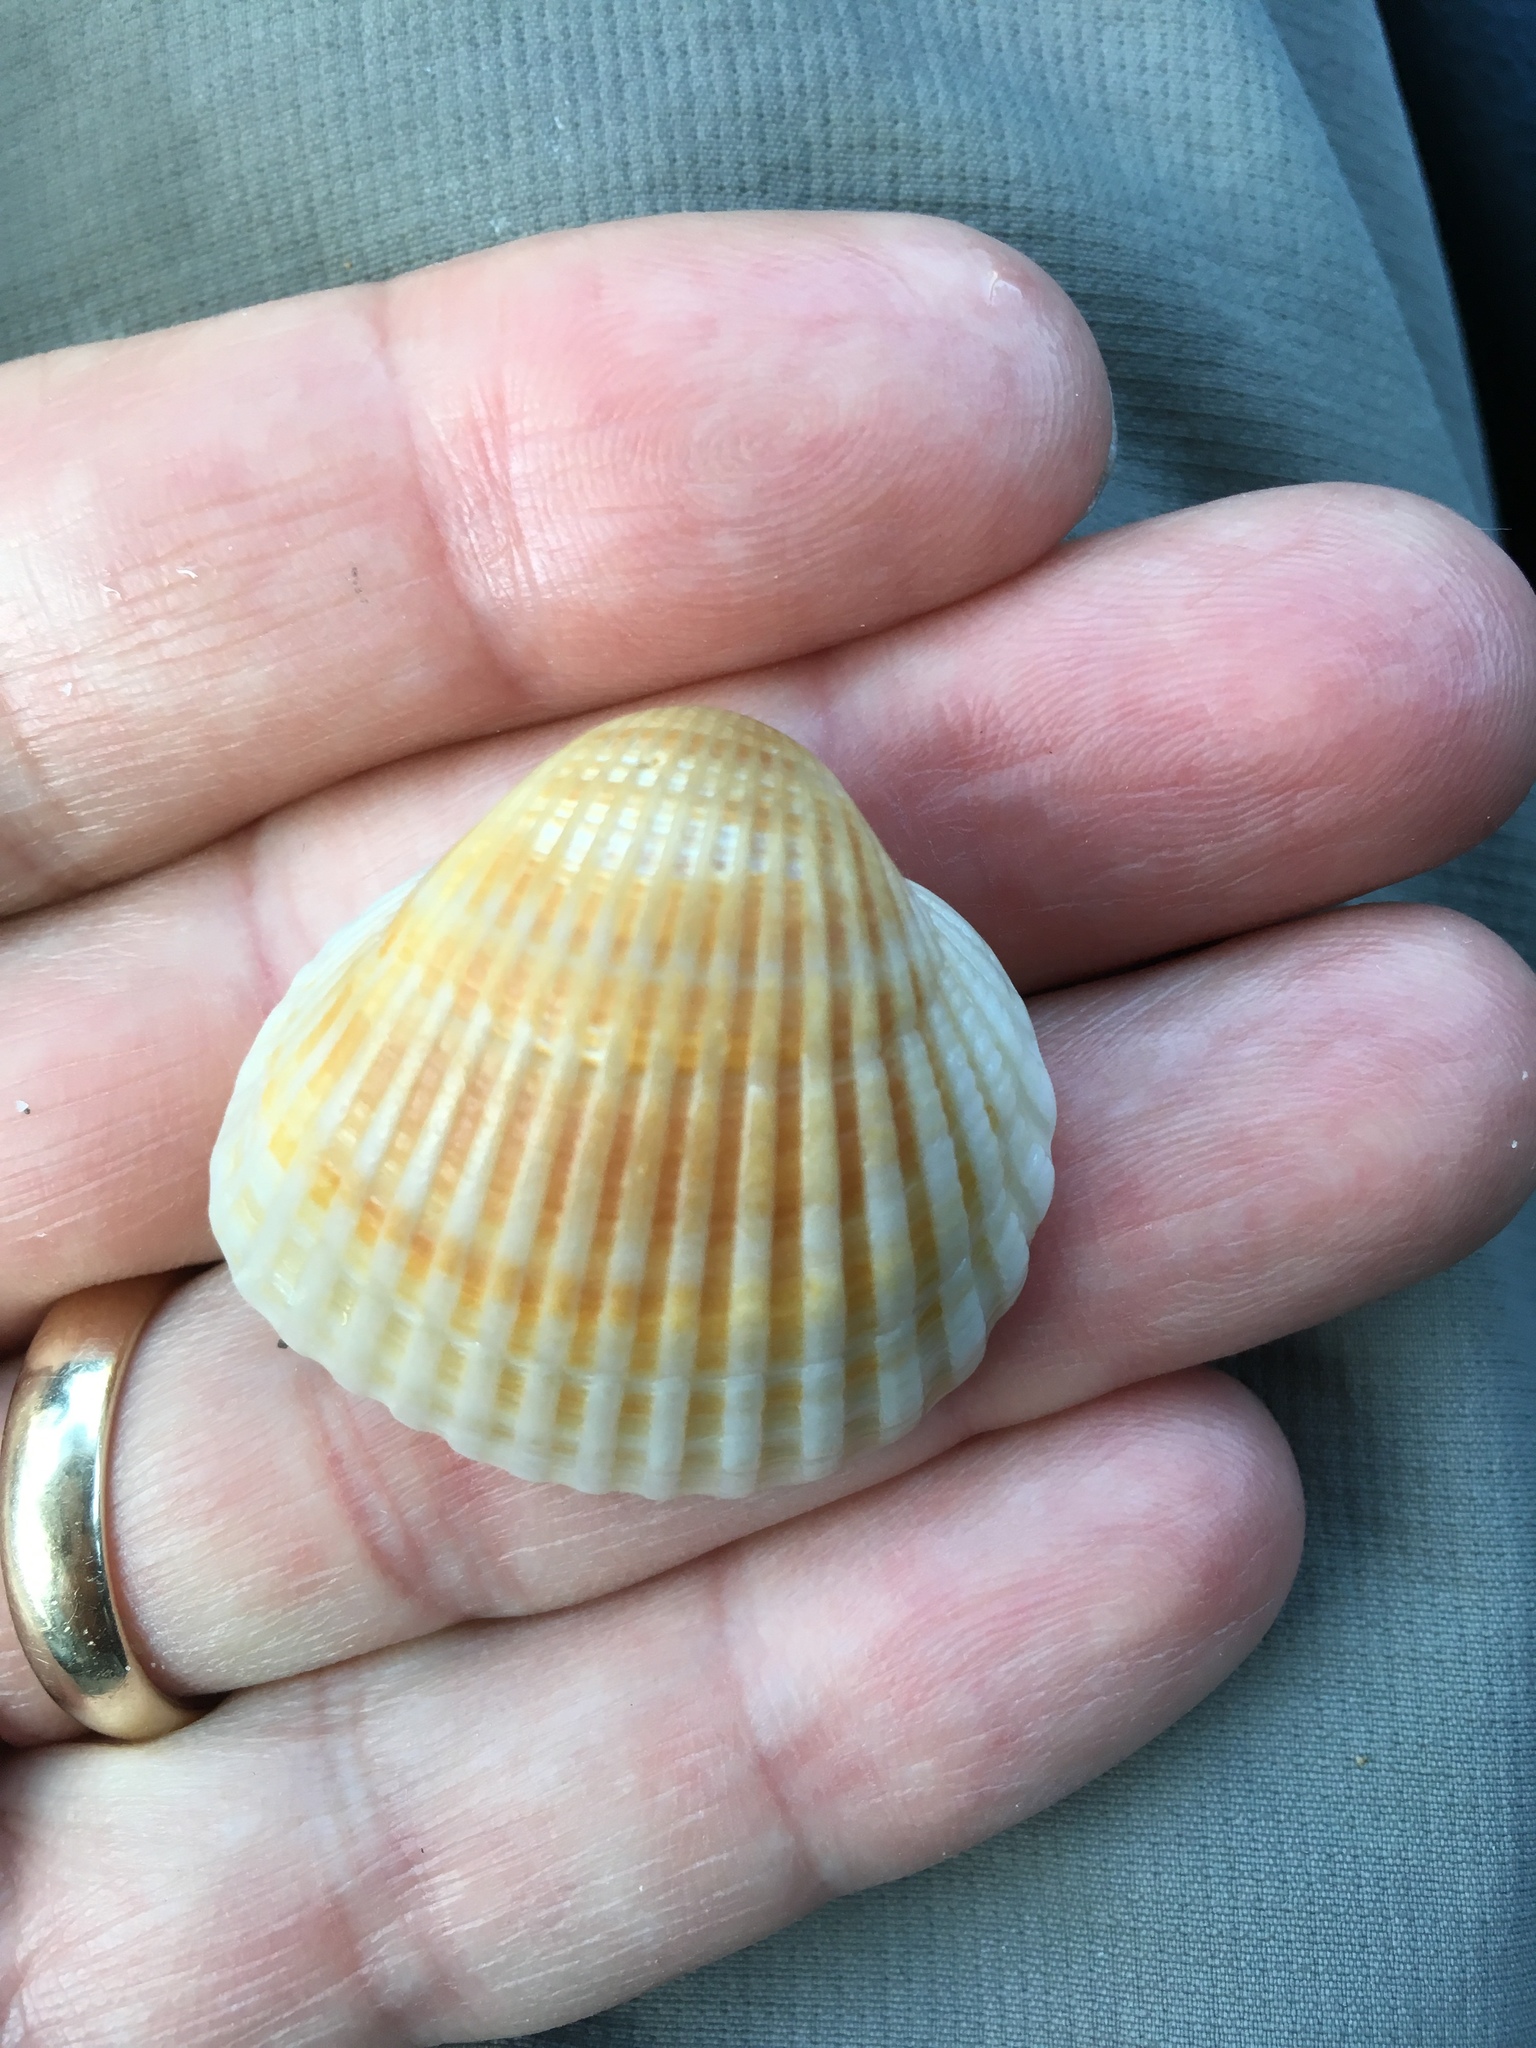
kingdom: Animalia
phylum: Mollusca
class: Bivalvia
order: Arcida
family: Arcidae
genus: Anadara
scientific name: Anadara brasiliana
